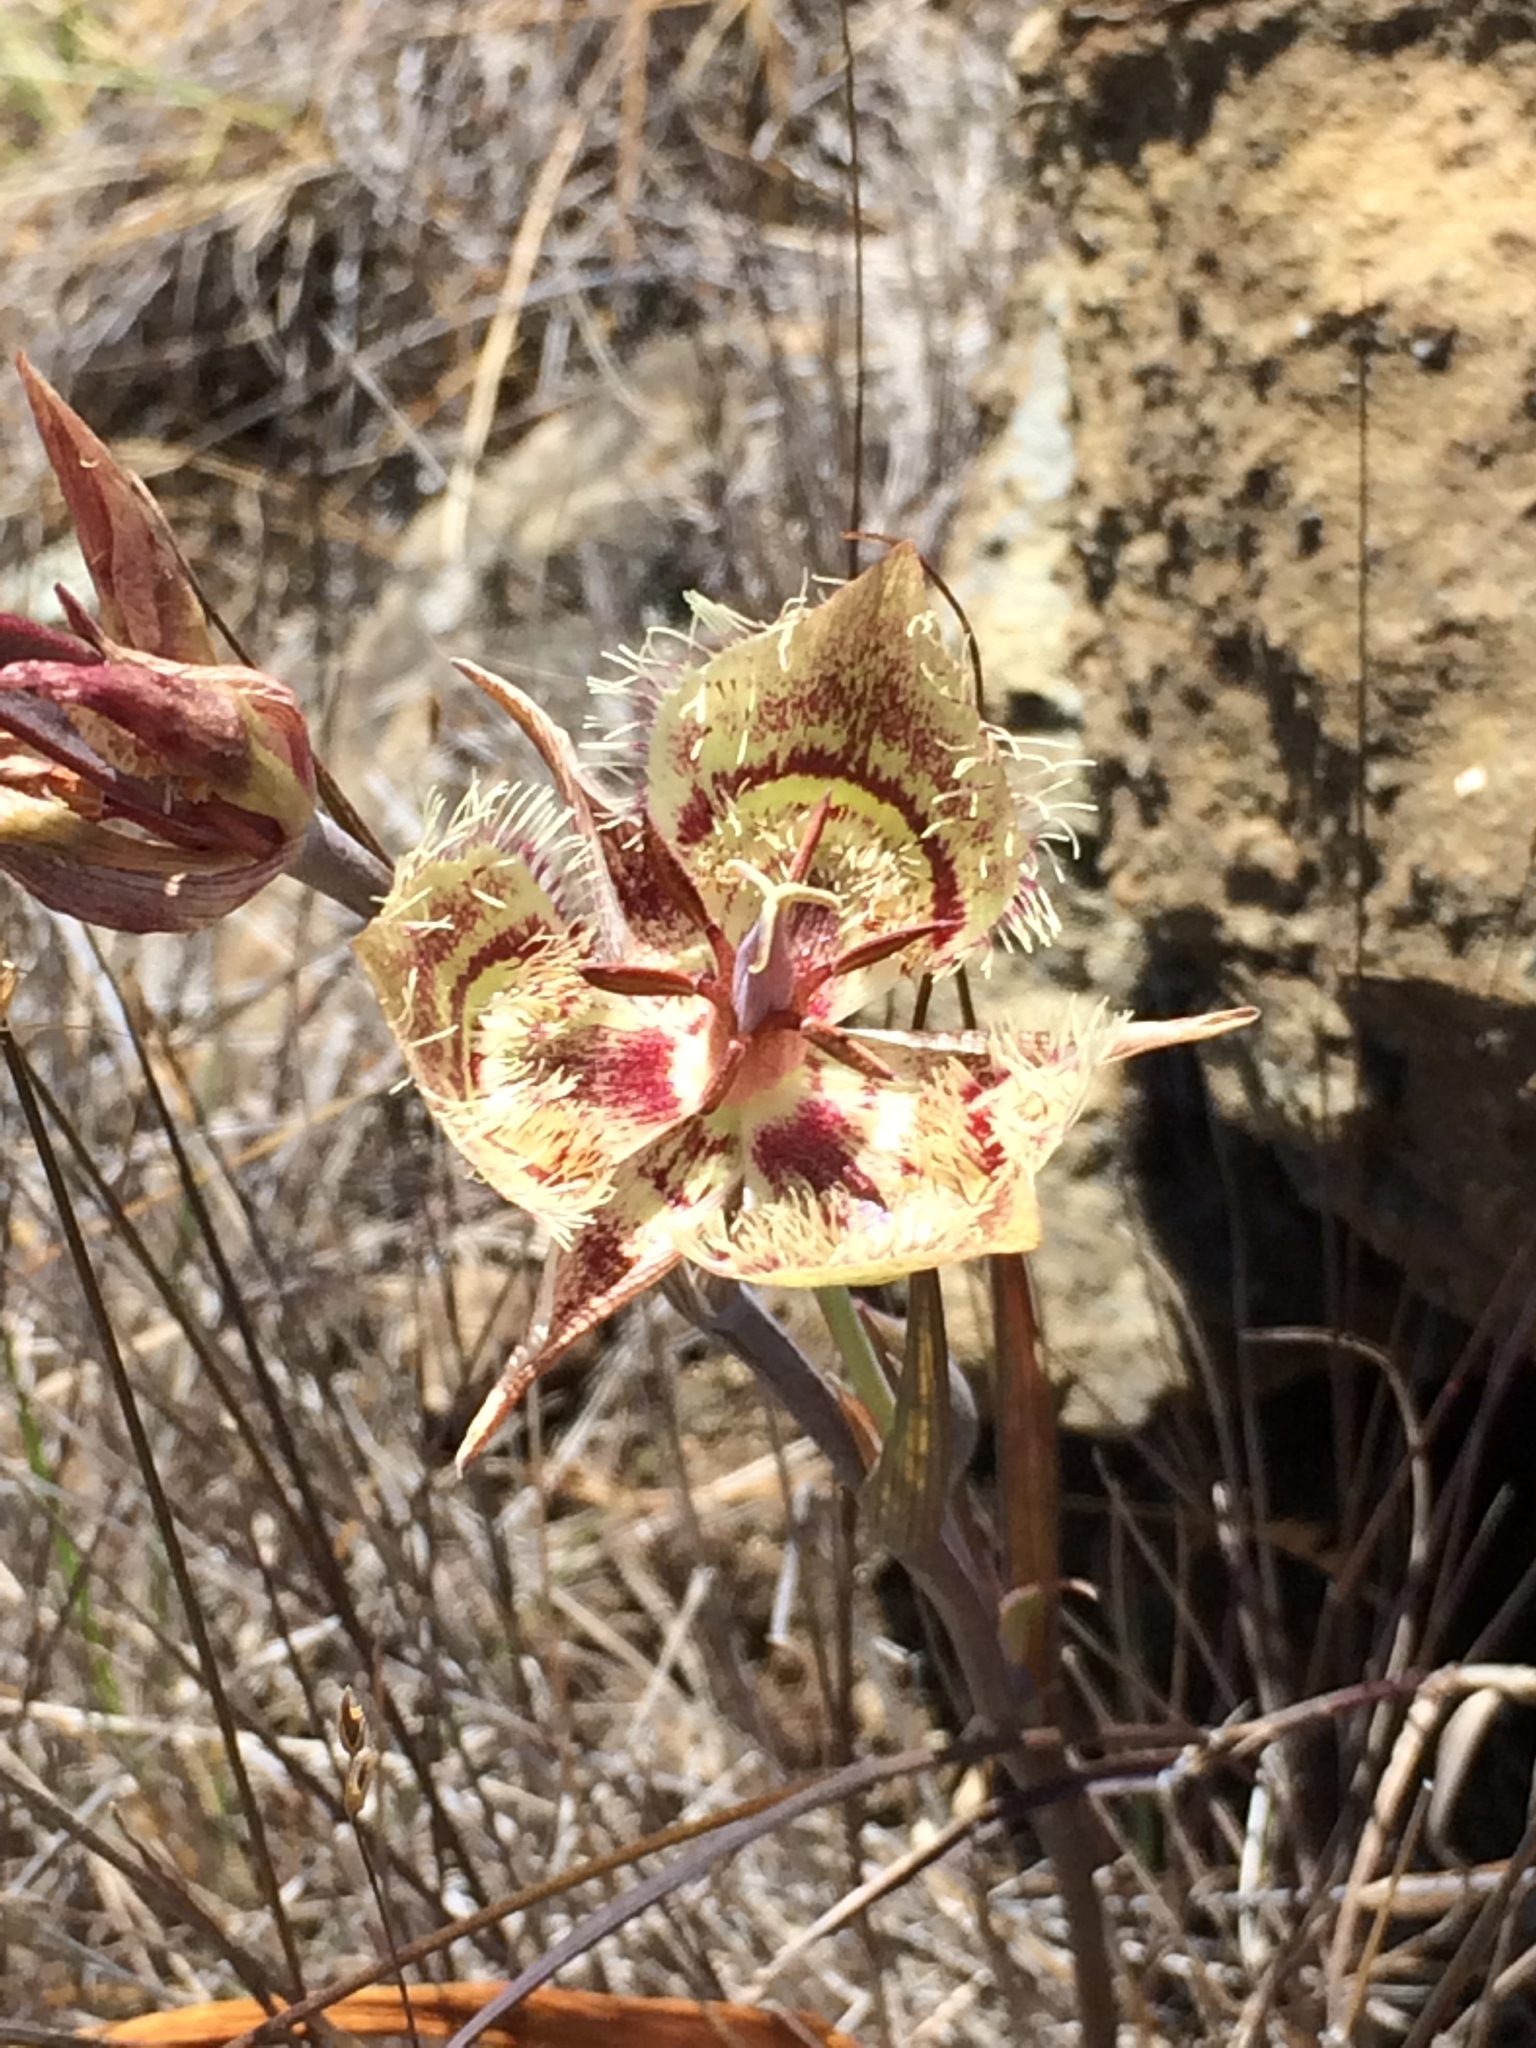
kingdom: Plantae
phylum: Tracheophyta
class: Liliopsida
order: Liliales
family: Liliaceae
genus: Calochortus
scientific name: Calochortus tiburonensis
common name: Tiburon mariposa-lily
